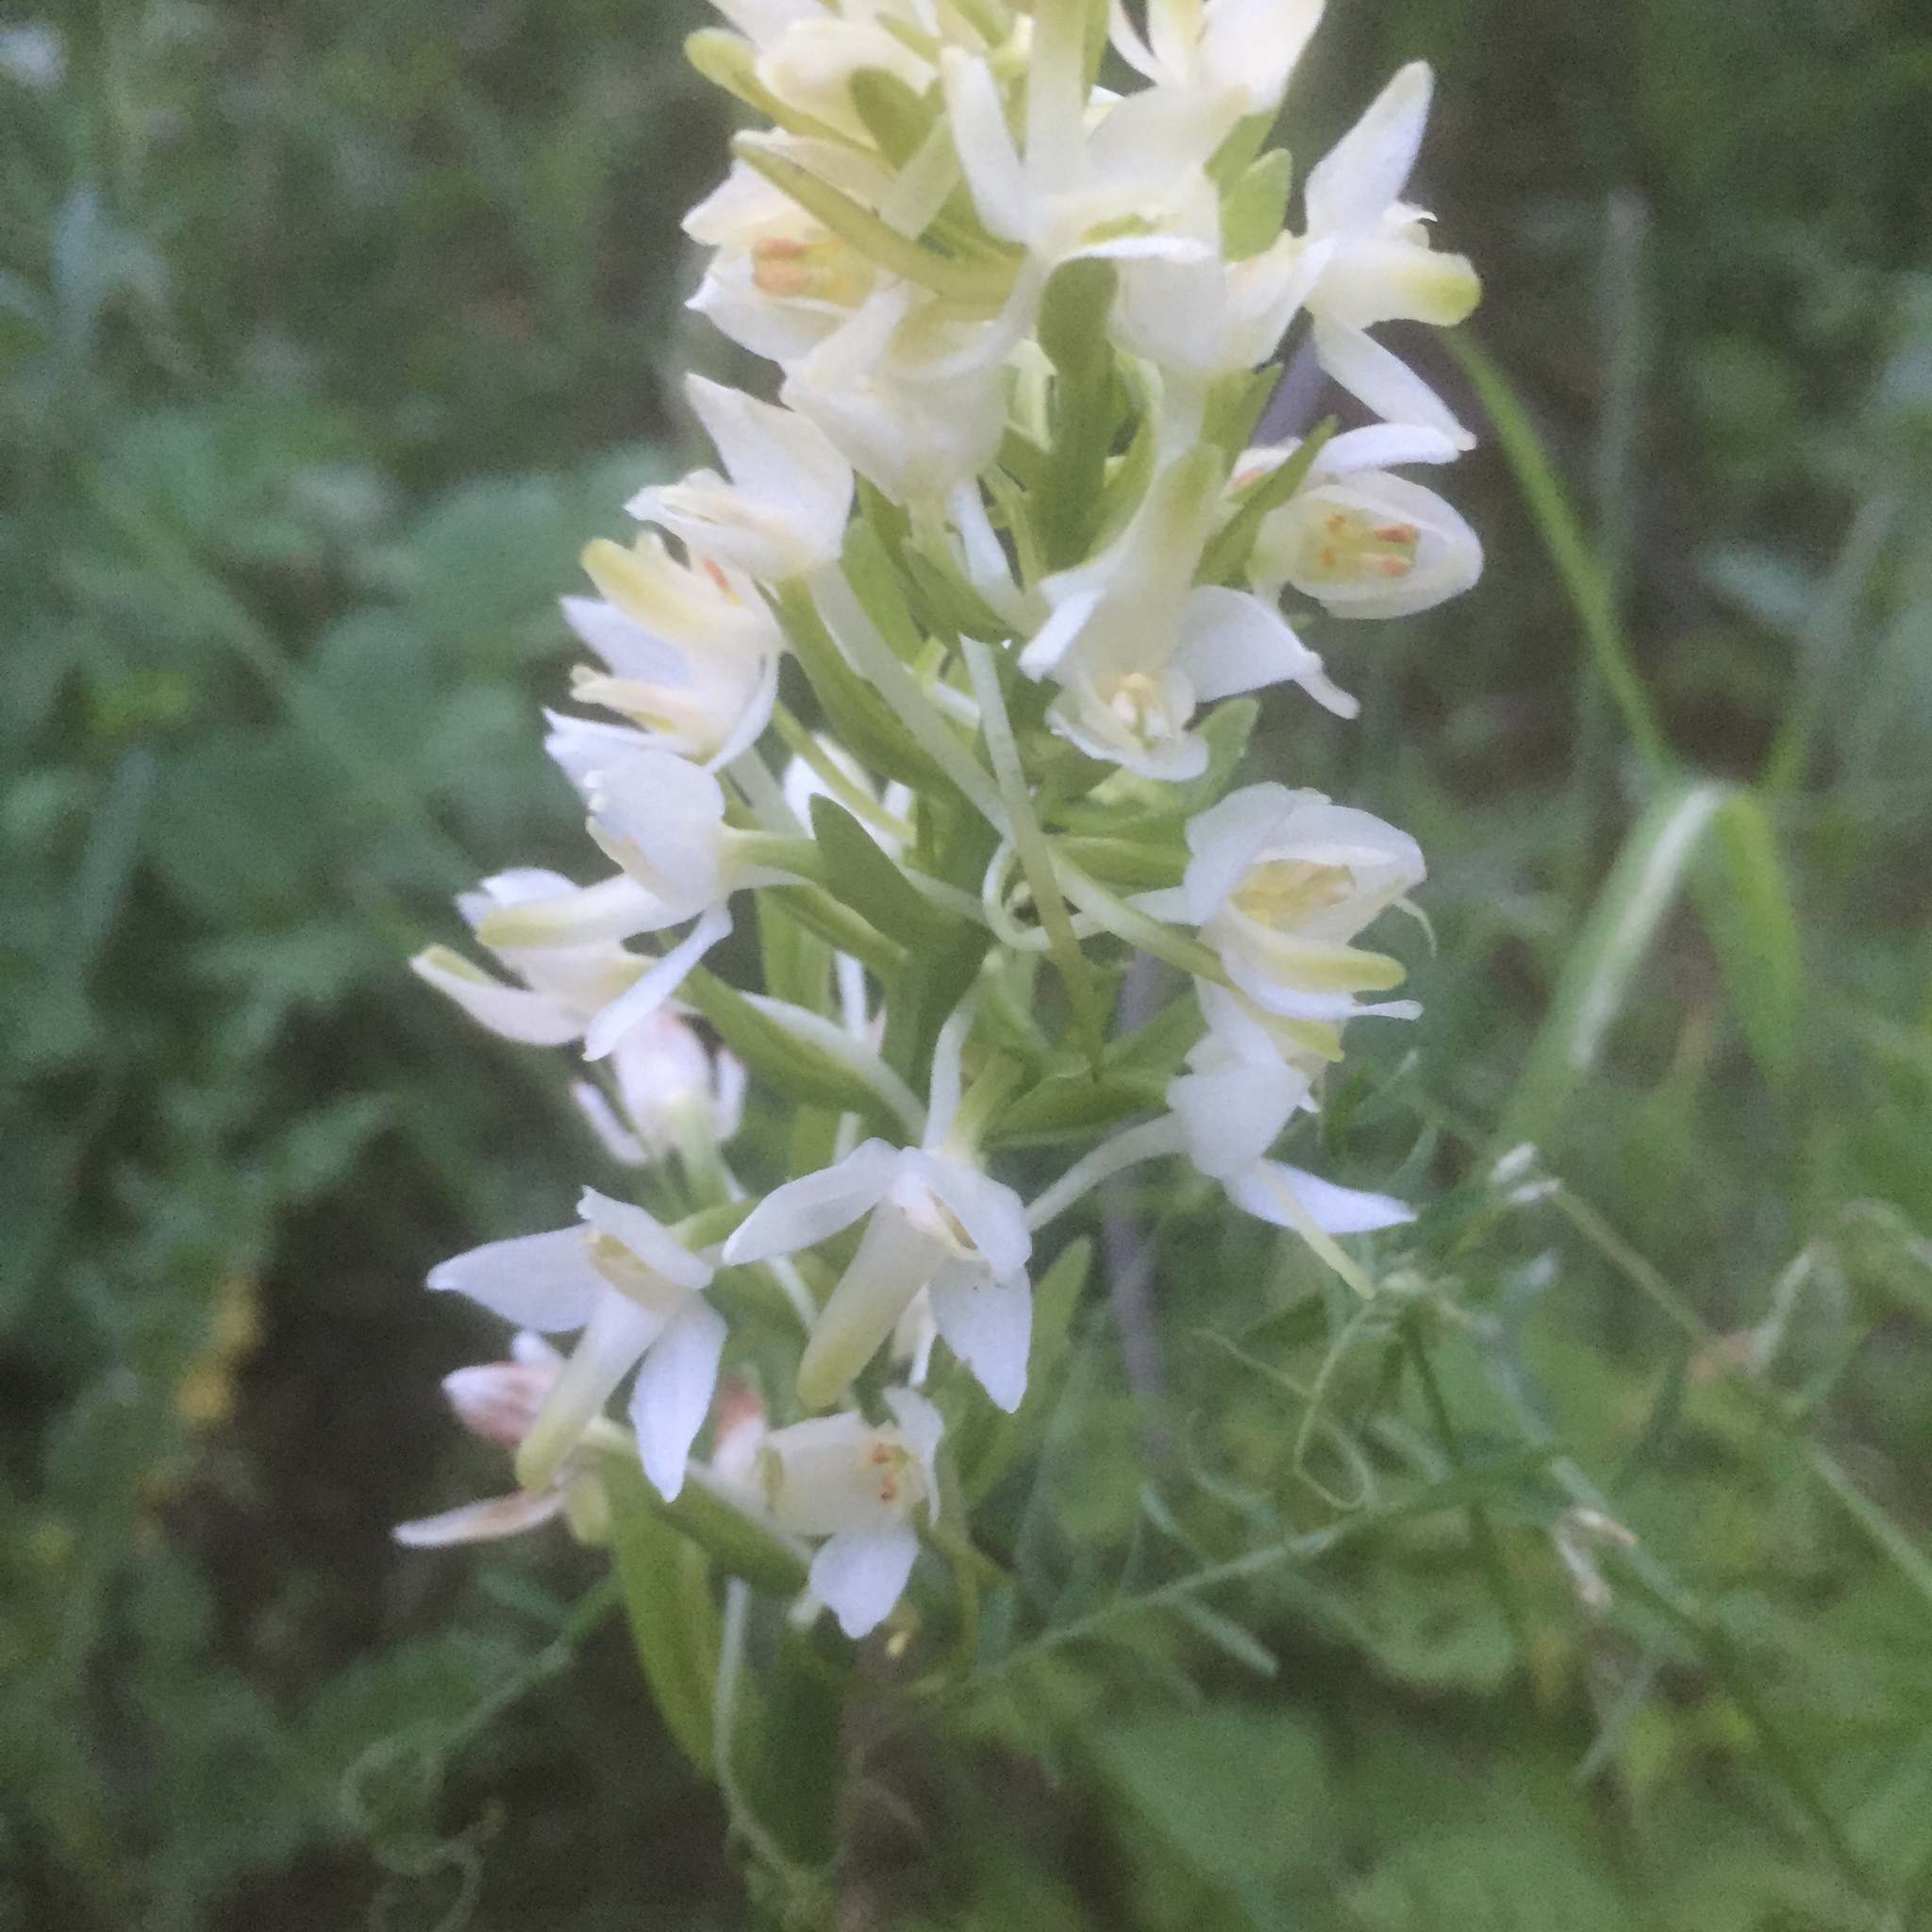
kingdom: Plantae
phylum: Tracheophyta
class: Liliopsida
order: Asparagales
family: Orchidaceae
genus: Platanthera
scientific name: Platanthera bifolia
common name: Lesser butterfly-orchid
